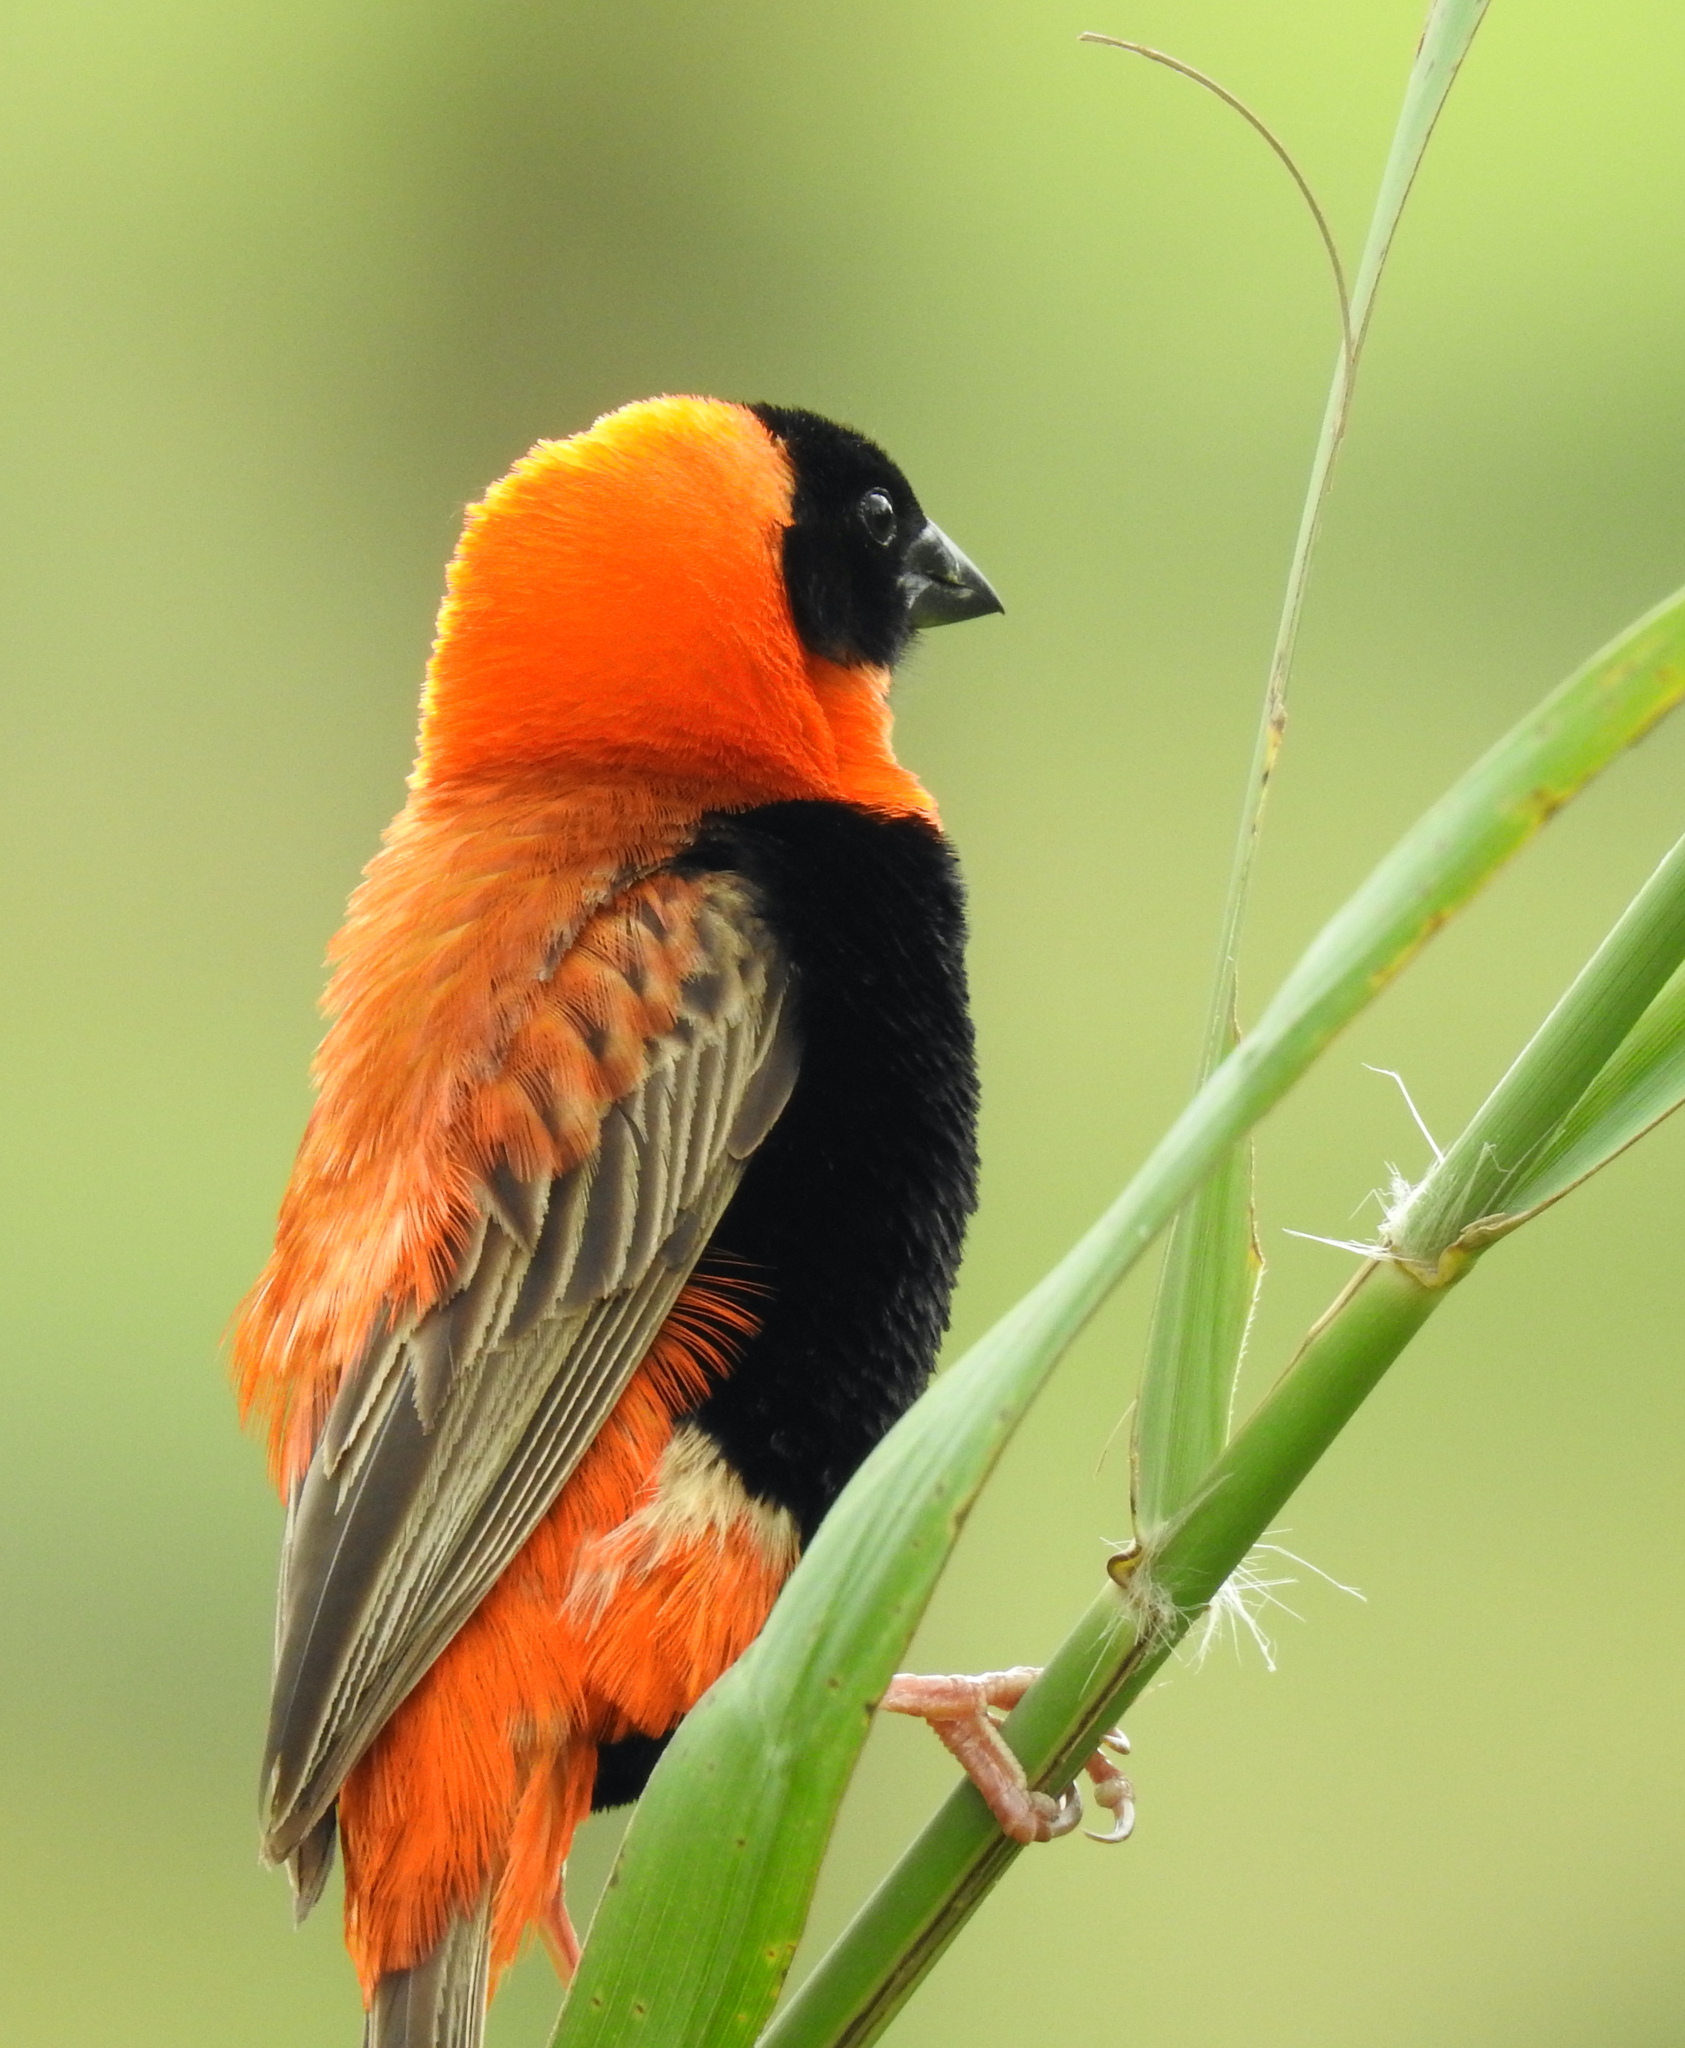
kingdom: Animalia
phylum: Chordata
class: Aves
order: Passeriformes
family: Ploceidae
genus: Euplectes
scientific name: Euplectes orix
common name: Southern red bishop
